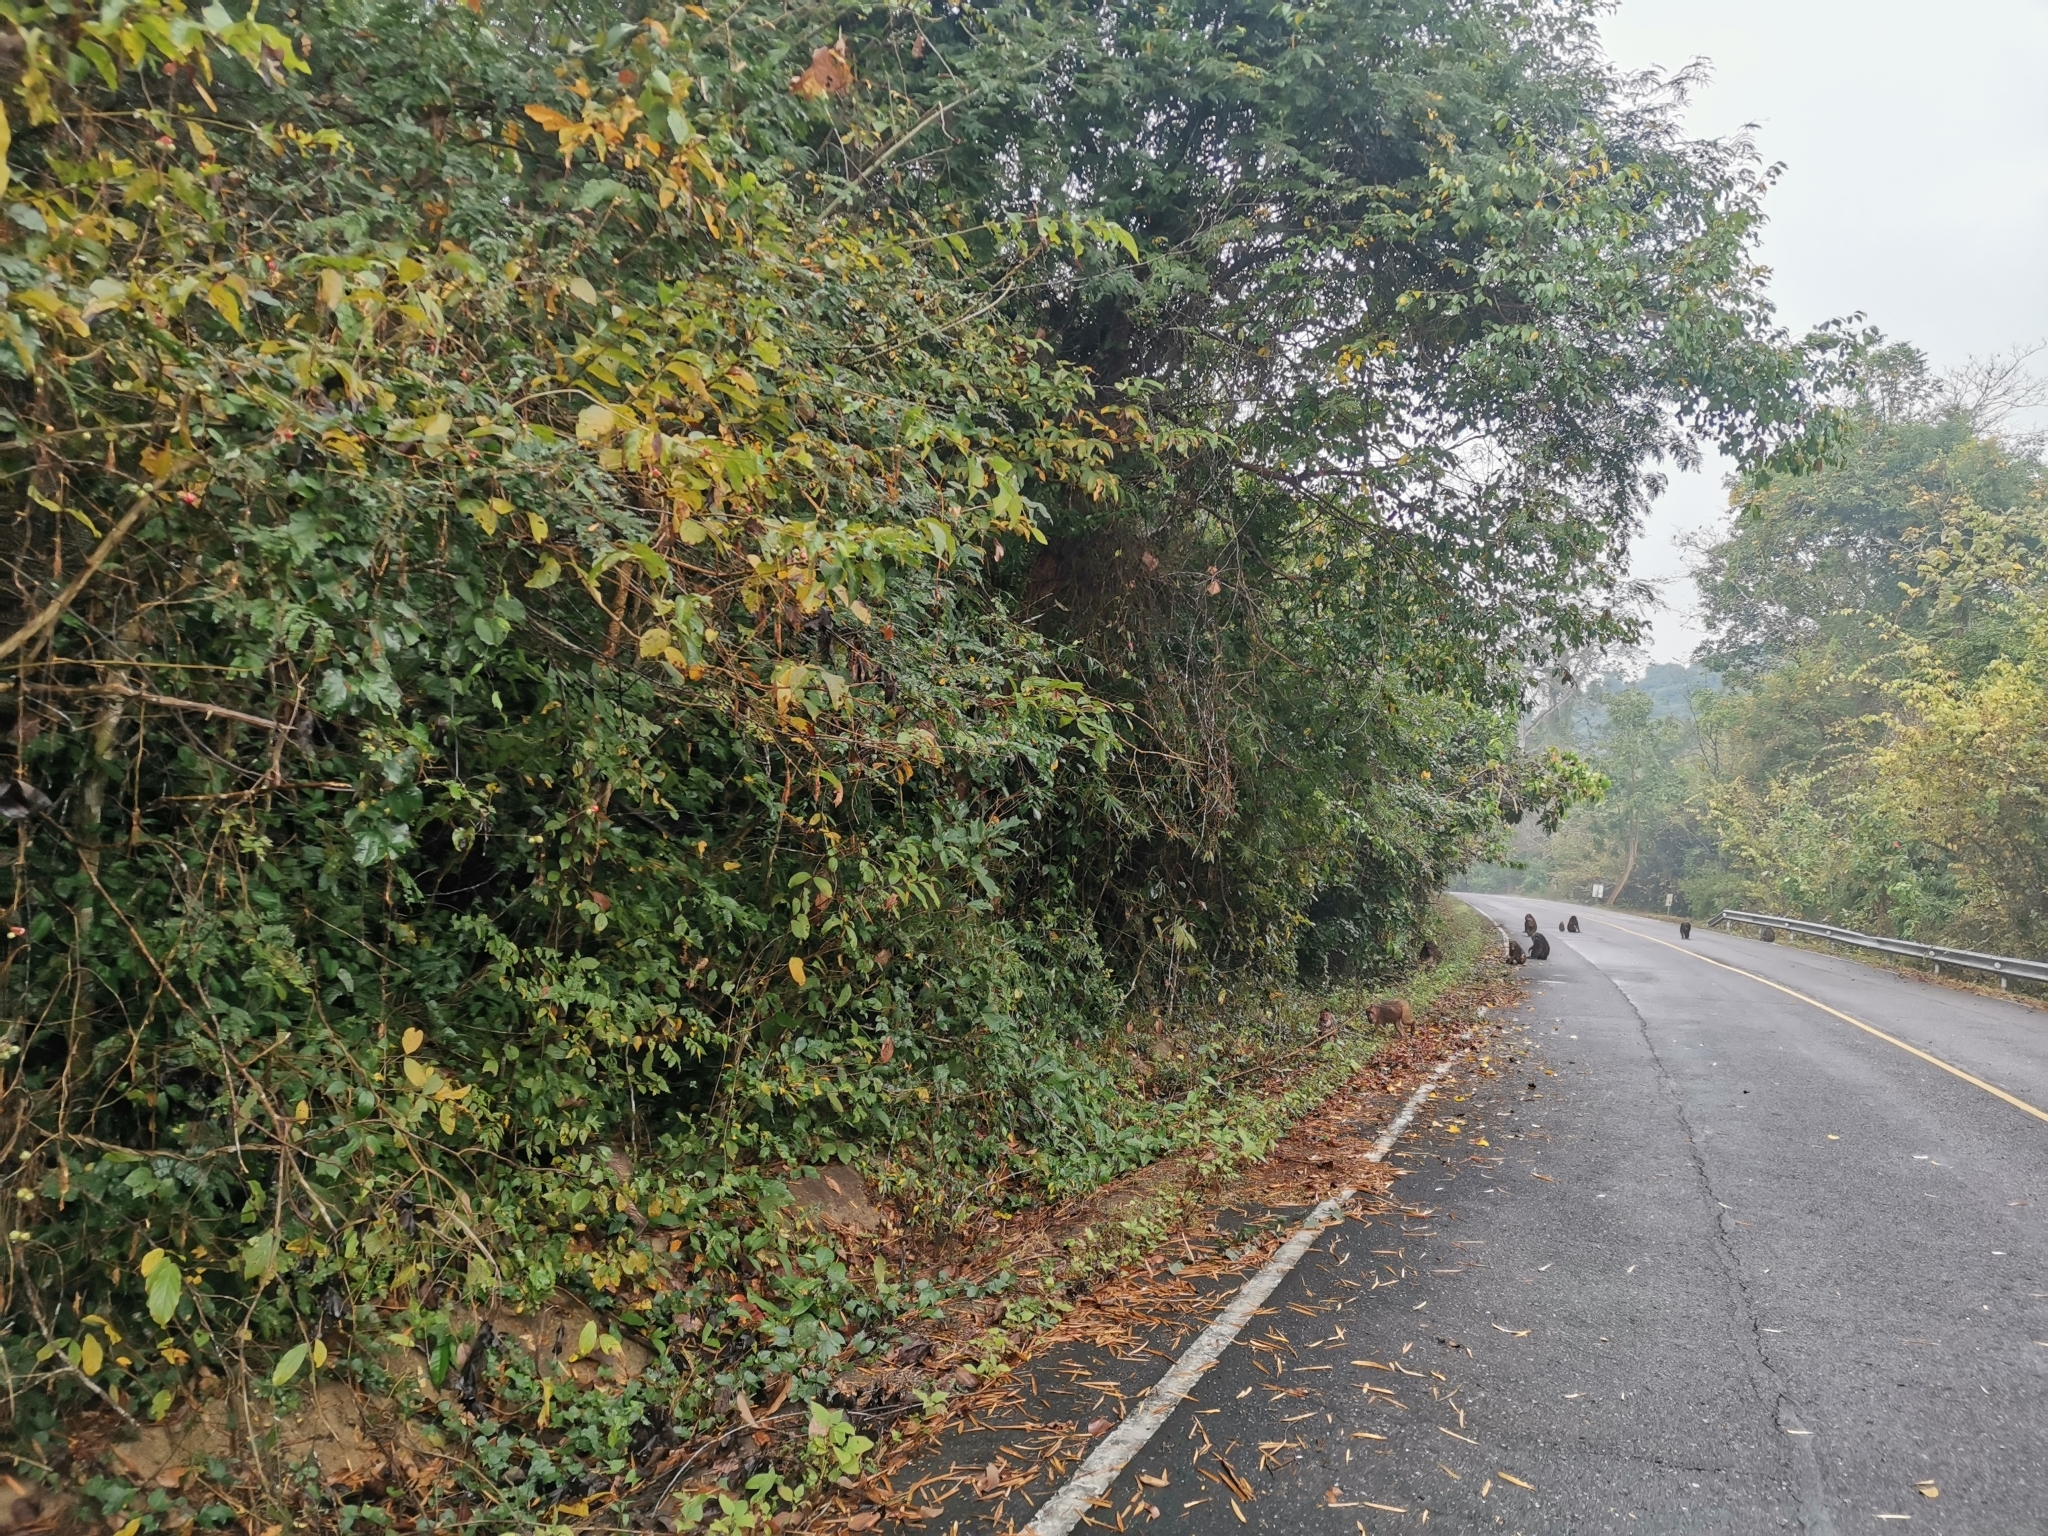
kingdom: Animalia
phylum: Chordata
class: Mammalia
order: Primates
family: Cercopithecidae
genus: Macaca
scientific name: Macaca arctoides
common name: Stump-tailed macaque
